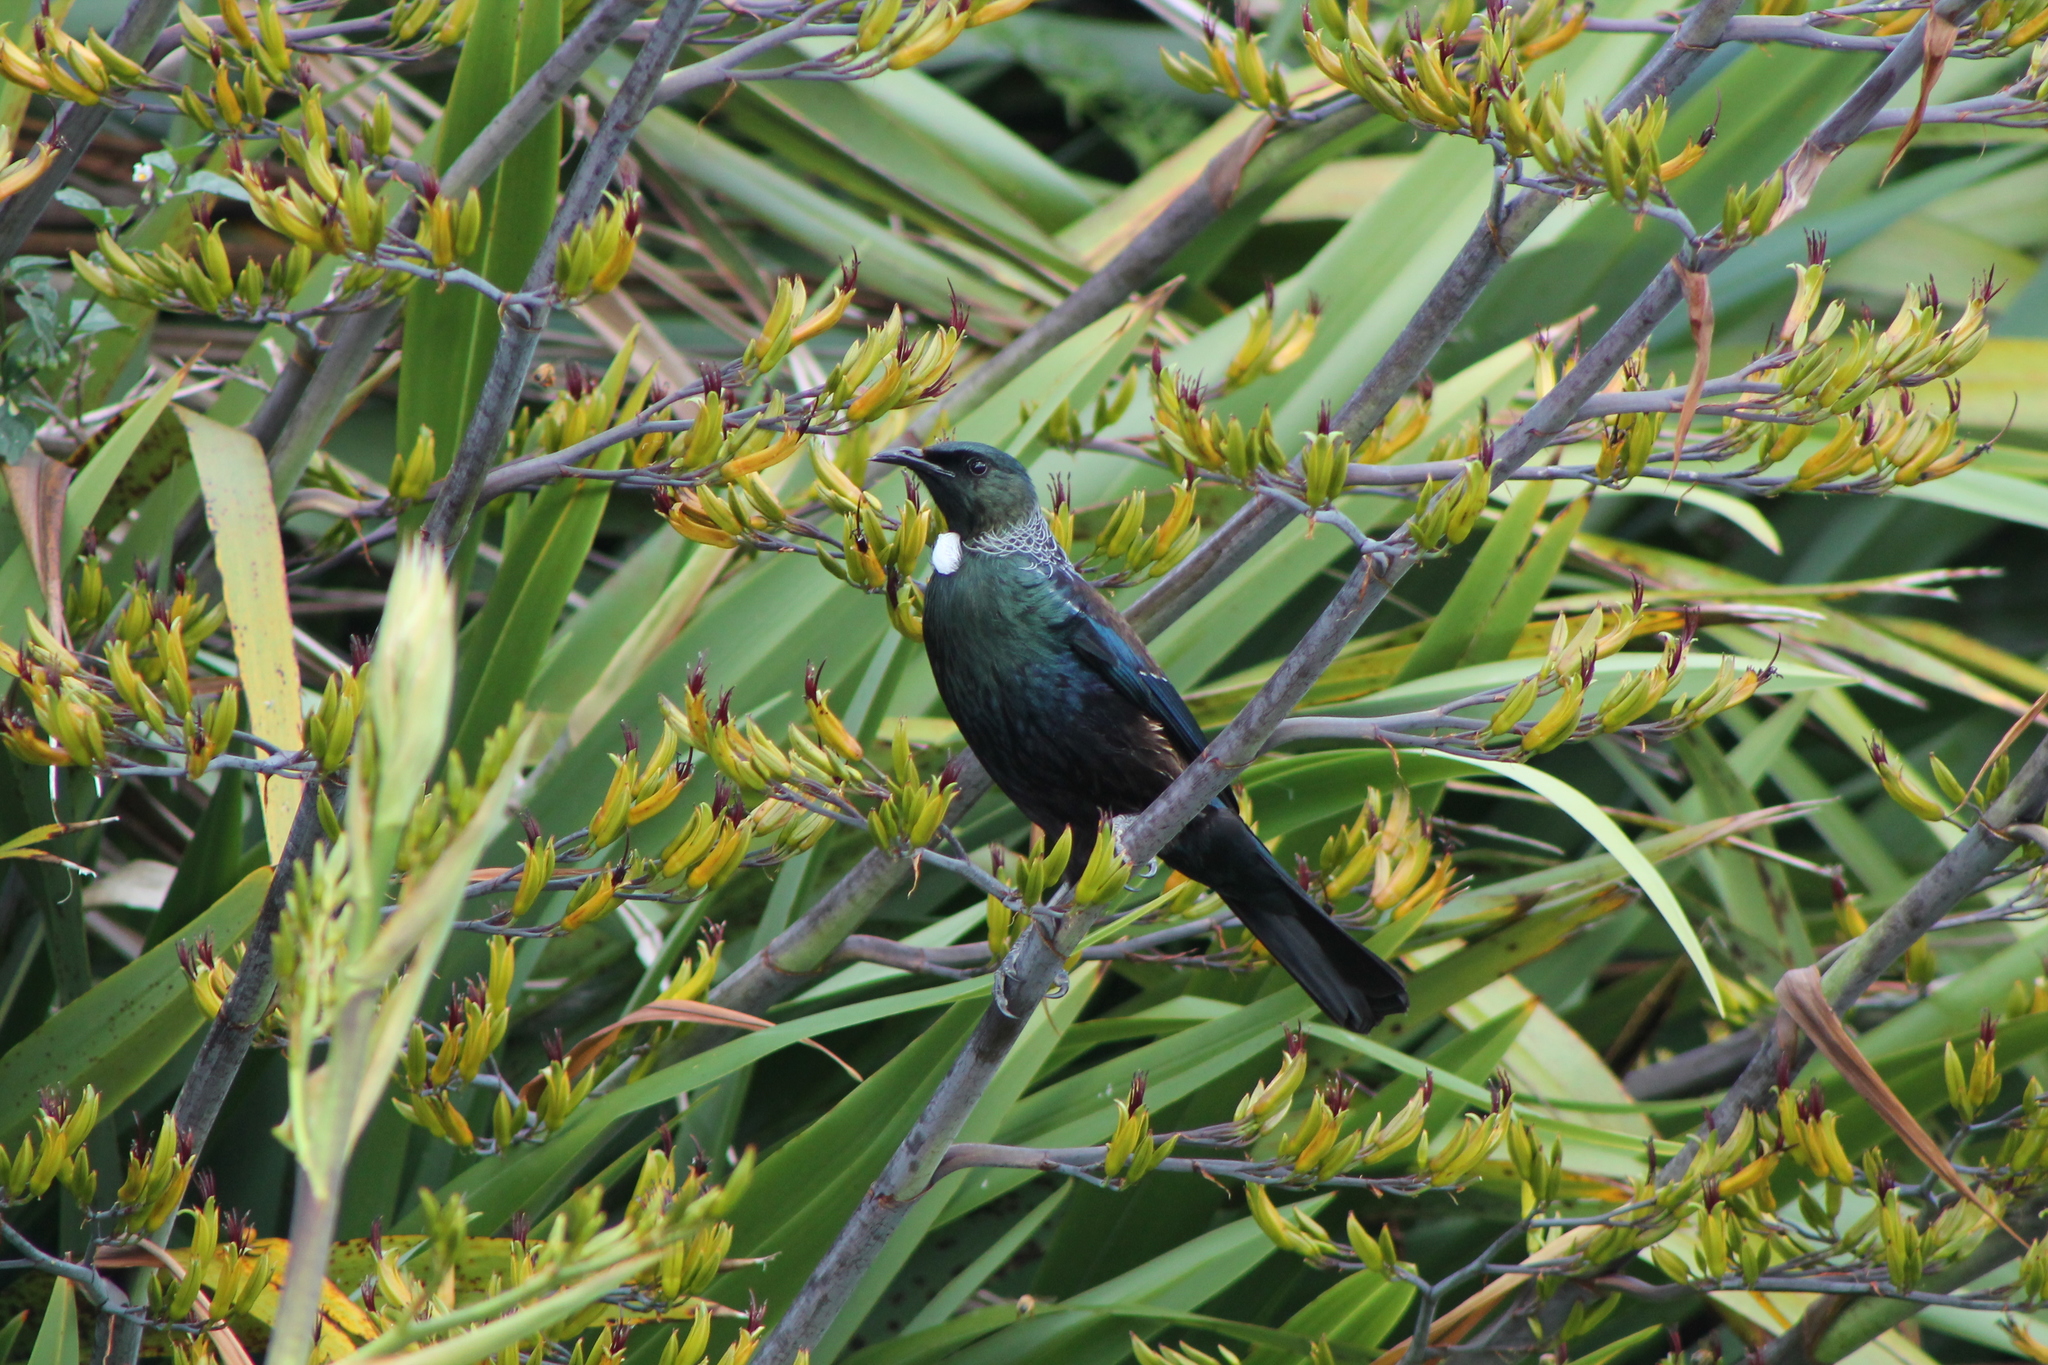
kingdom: Animalia
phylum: Chordata
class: Aves
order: Passeriformes
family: Meliphagidae
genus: Prosthemadera
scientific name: Prosthemadera novaeseelandiae
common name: Tui
